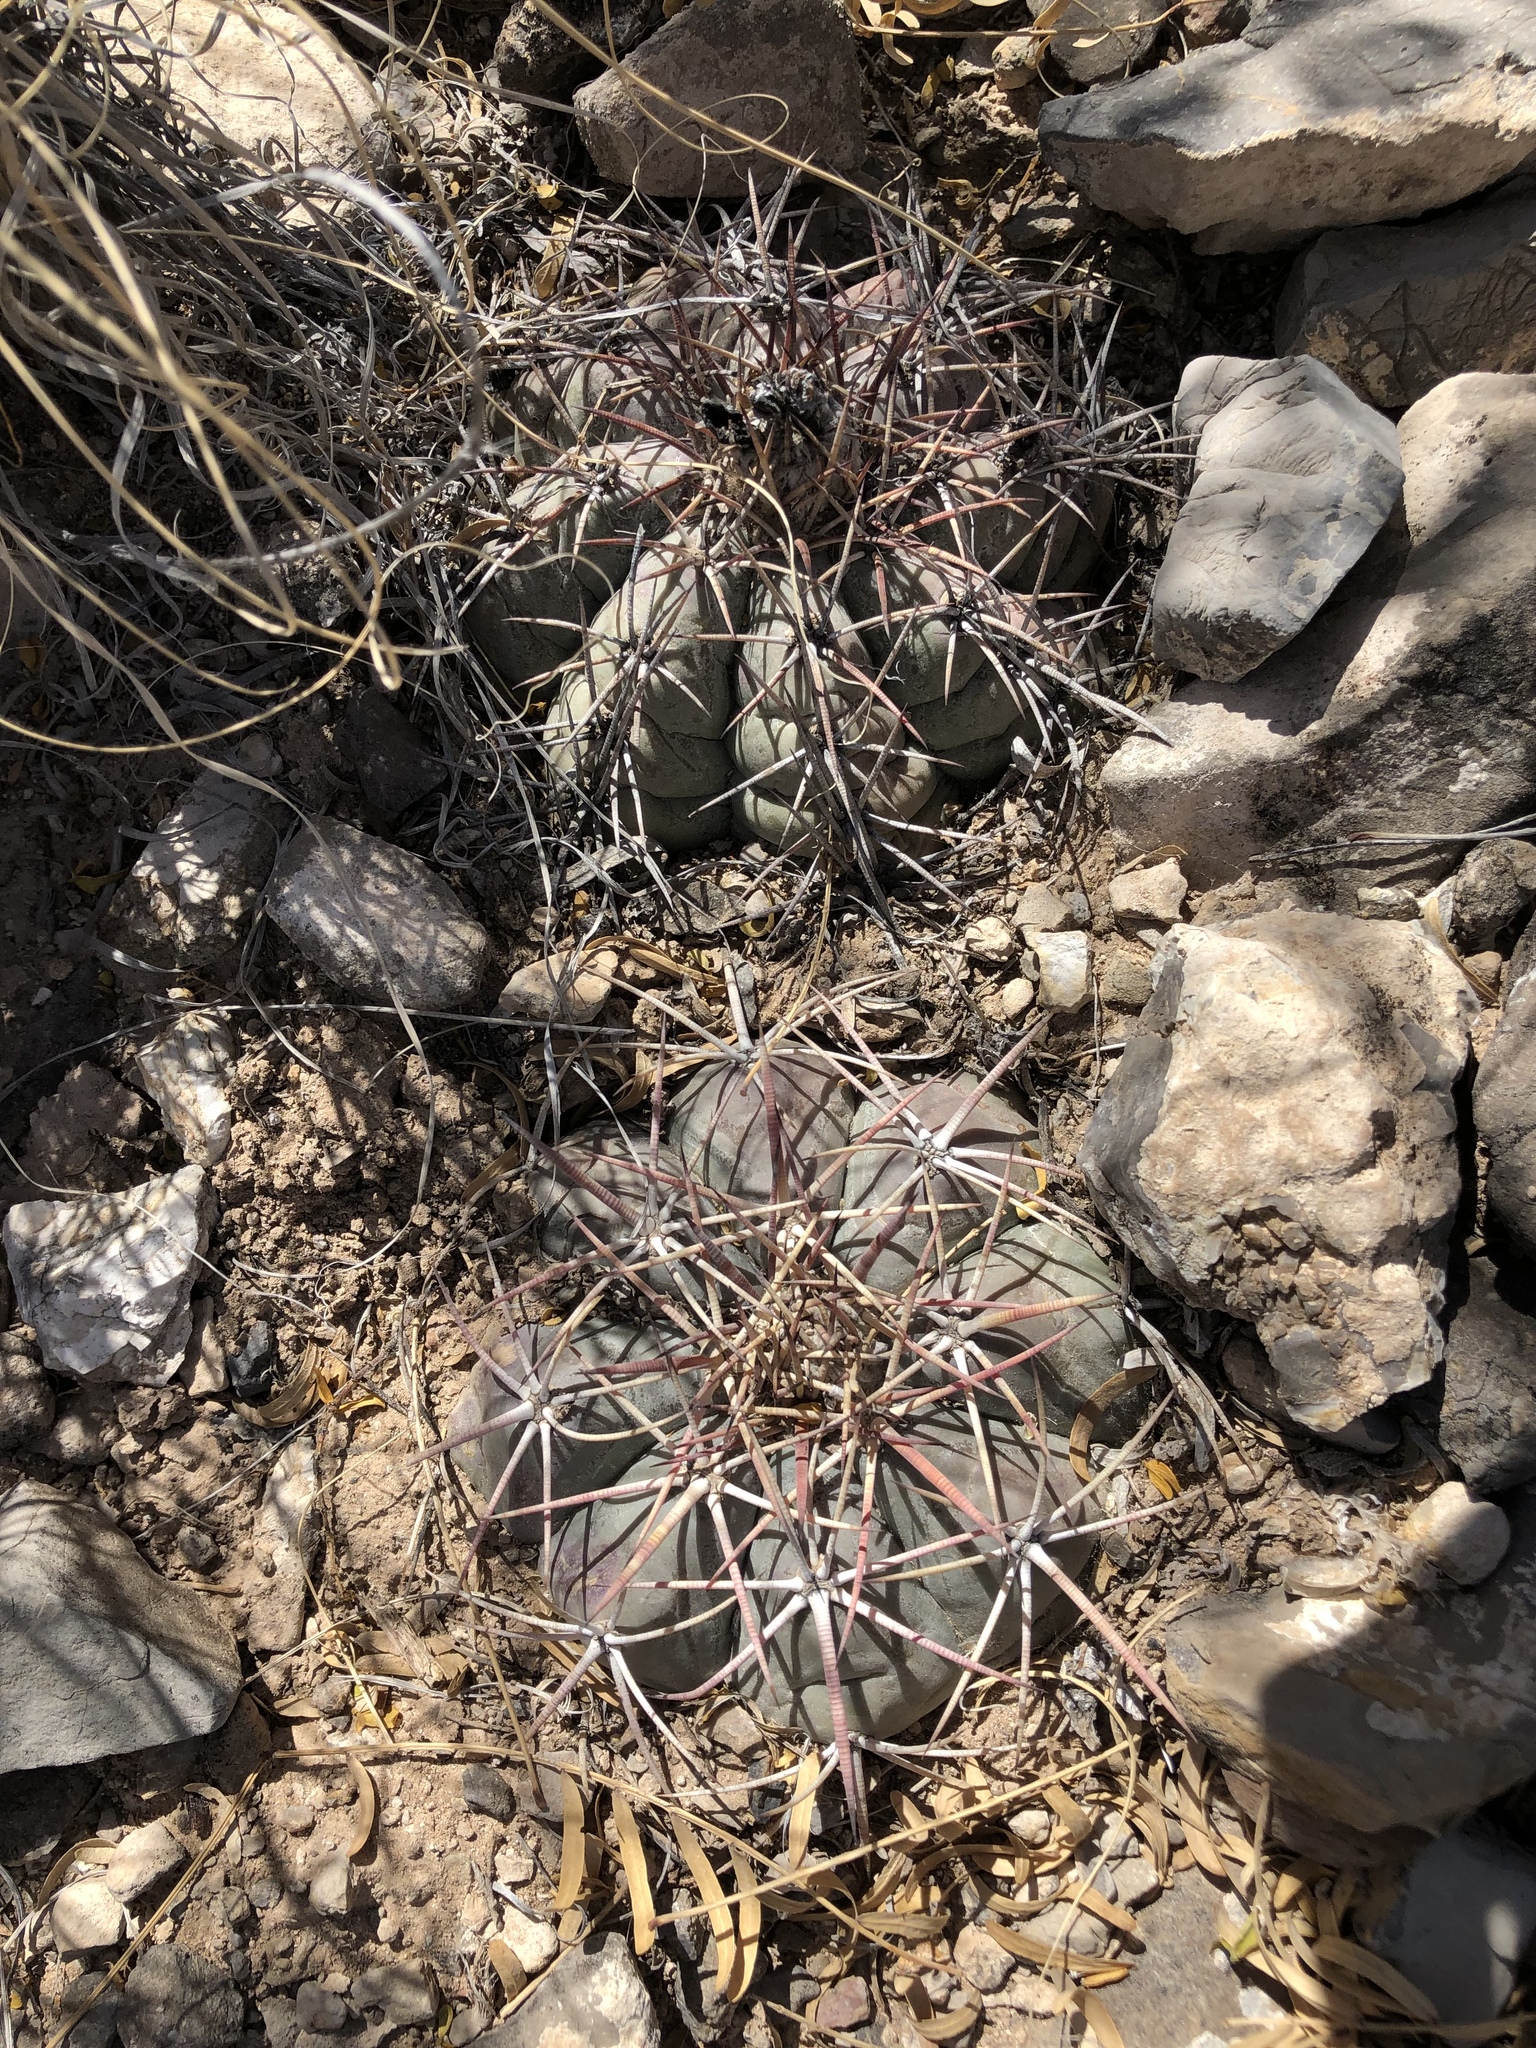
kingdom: Plantae
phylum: Tracheophyta
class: Magnoliopsida
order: Caryophyllales
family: Cactaceae
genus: Echinocactus
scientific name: Echinocactus horizonthalonius
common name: Devilshead
